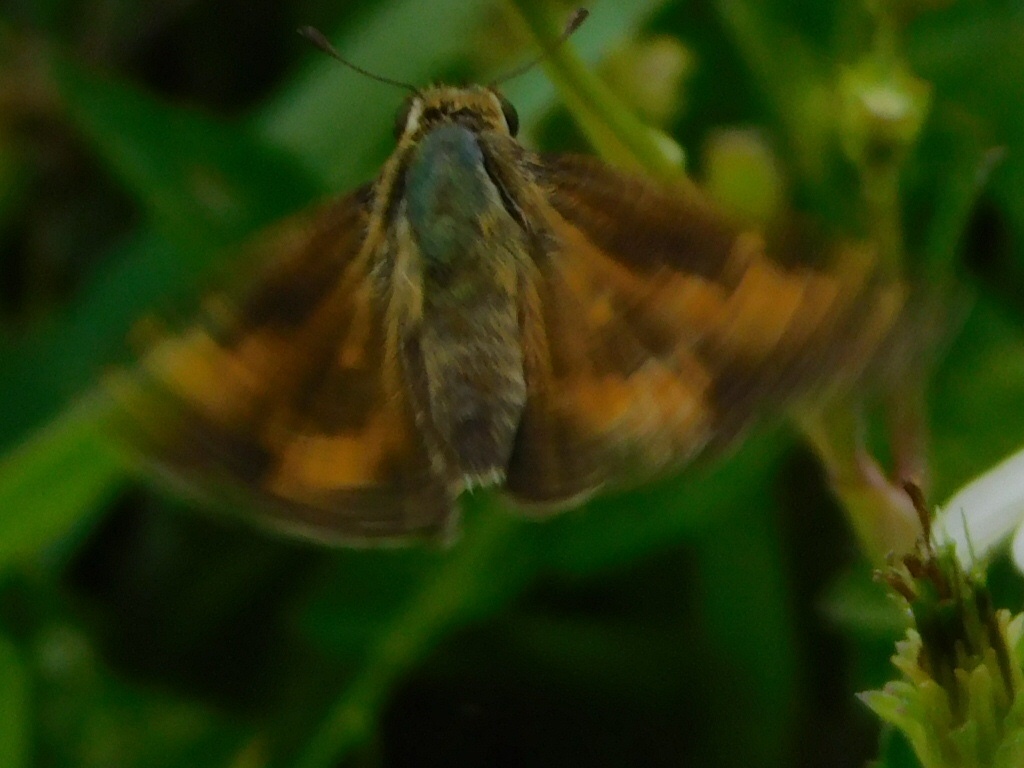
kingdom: Animalia
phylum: Arthropoda
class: Insecta
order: Lepidoptera
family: Hesperiidae
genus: Hylephila
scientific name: Hylephila phyleus
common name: Fiery skipper
